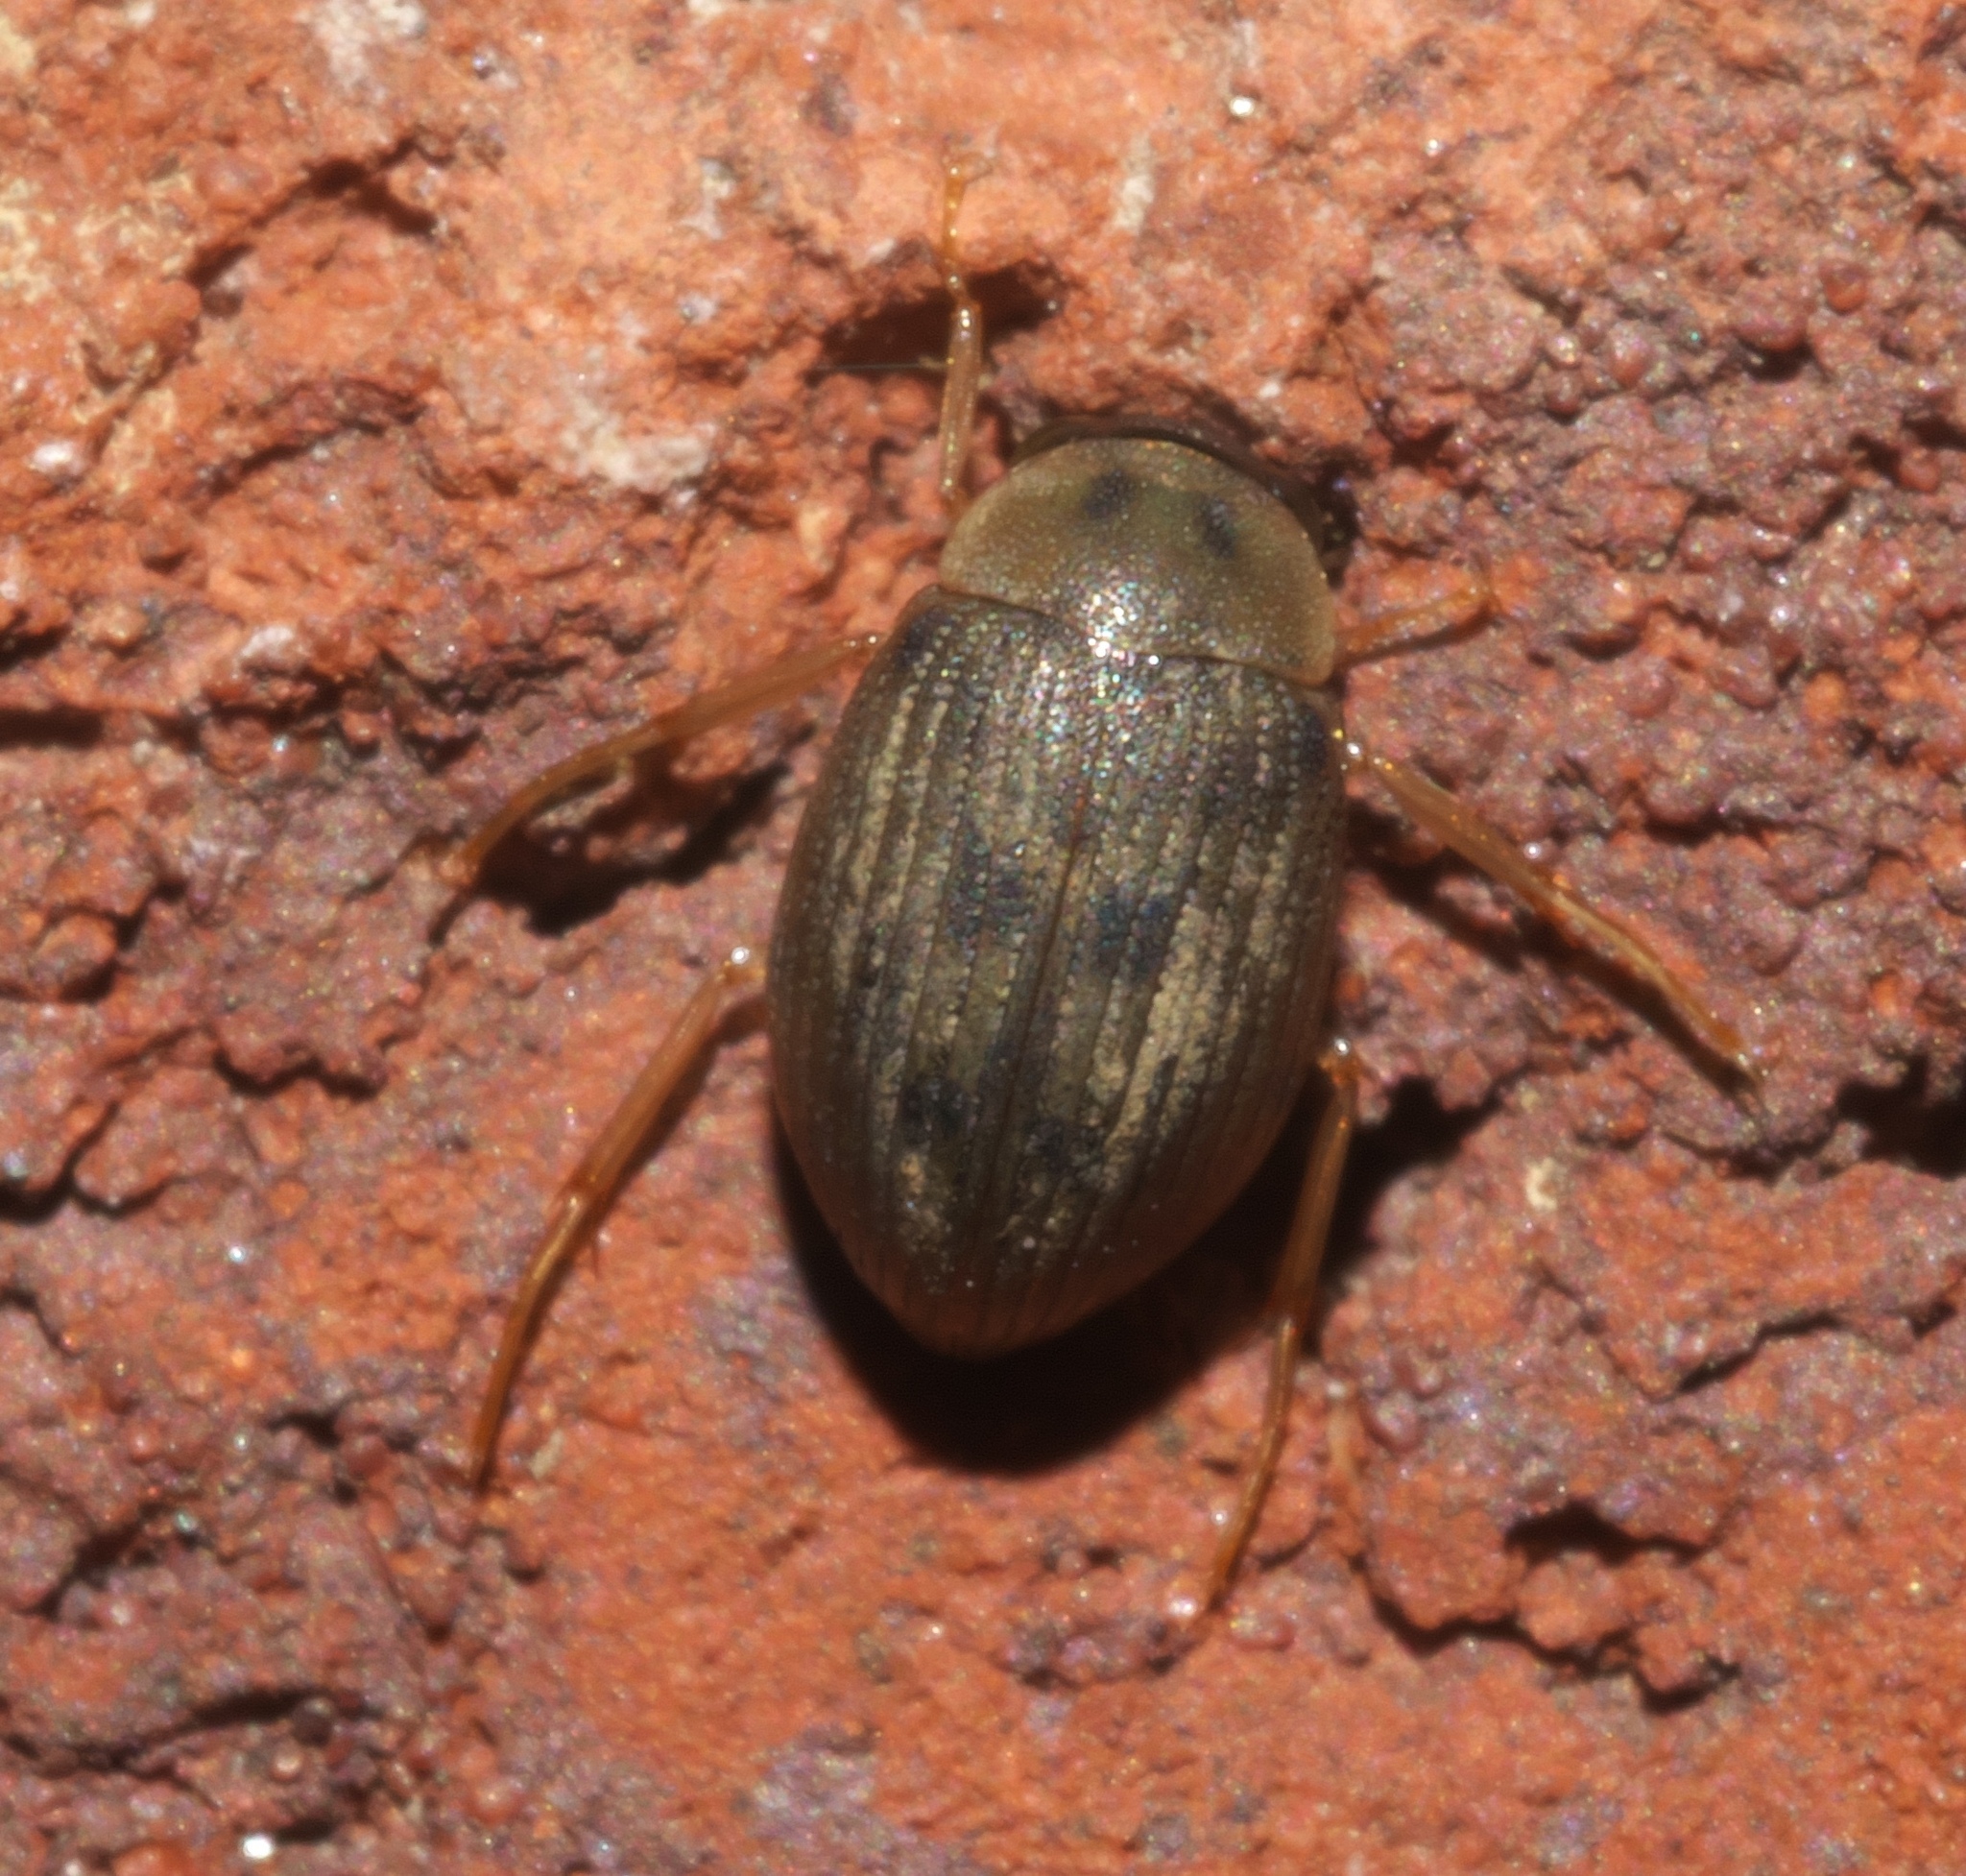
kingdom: Animalia
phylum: Arthropoda
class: Insecta
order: Coleoptera
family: Hydrophilidae
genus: Berosus
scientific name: Berosus
